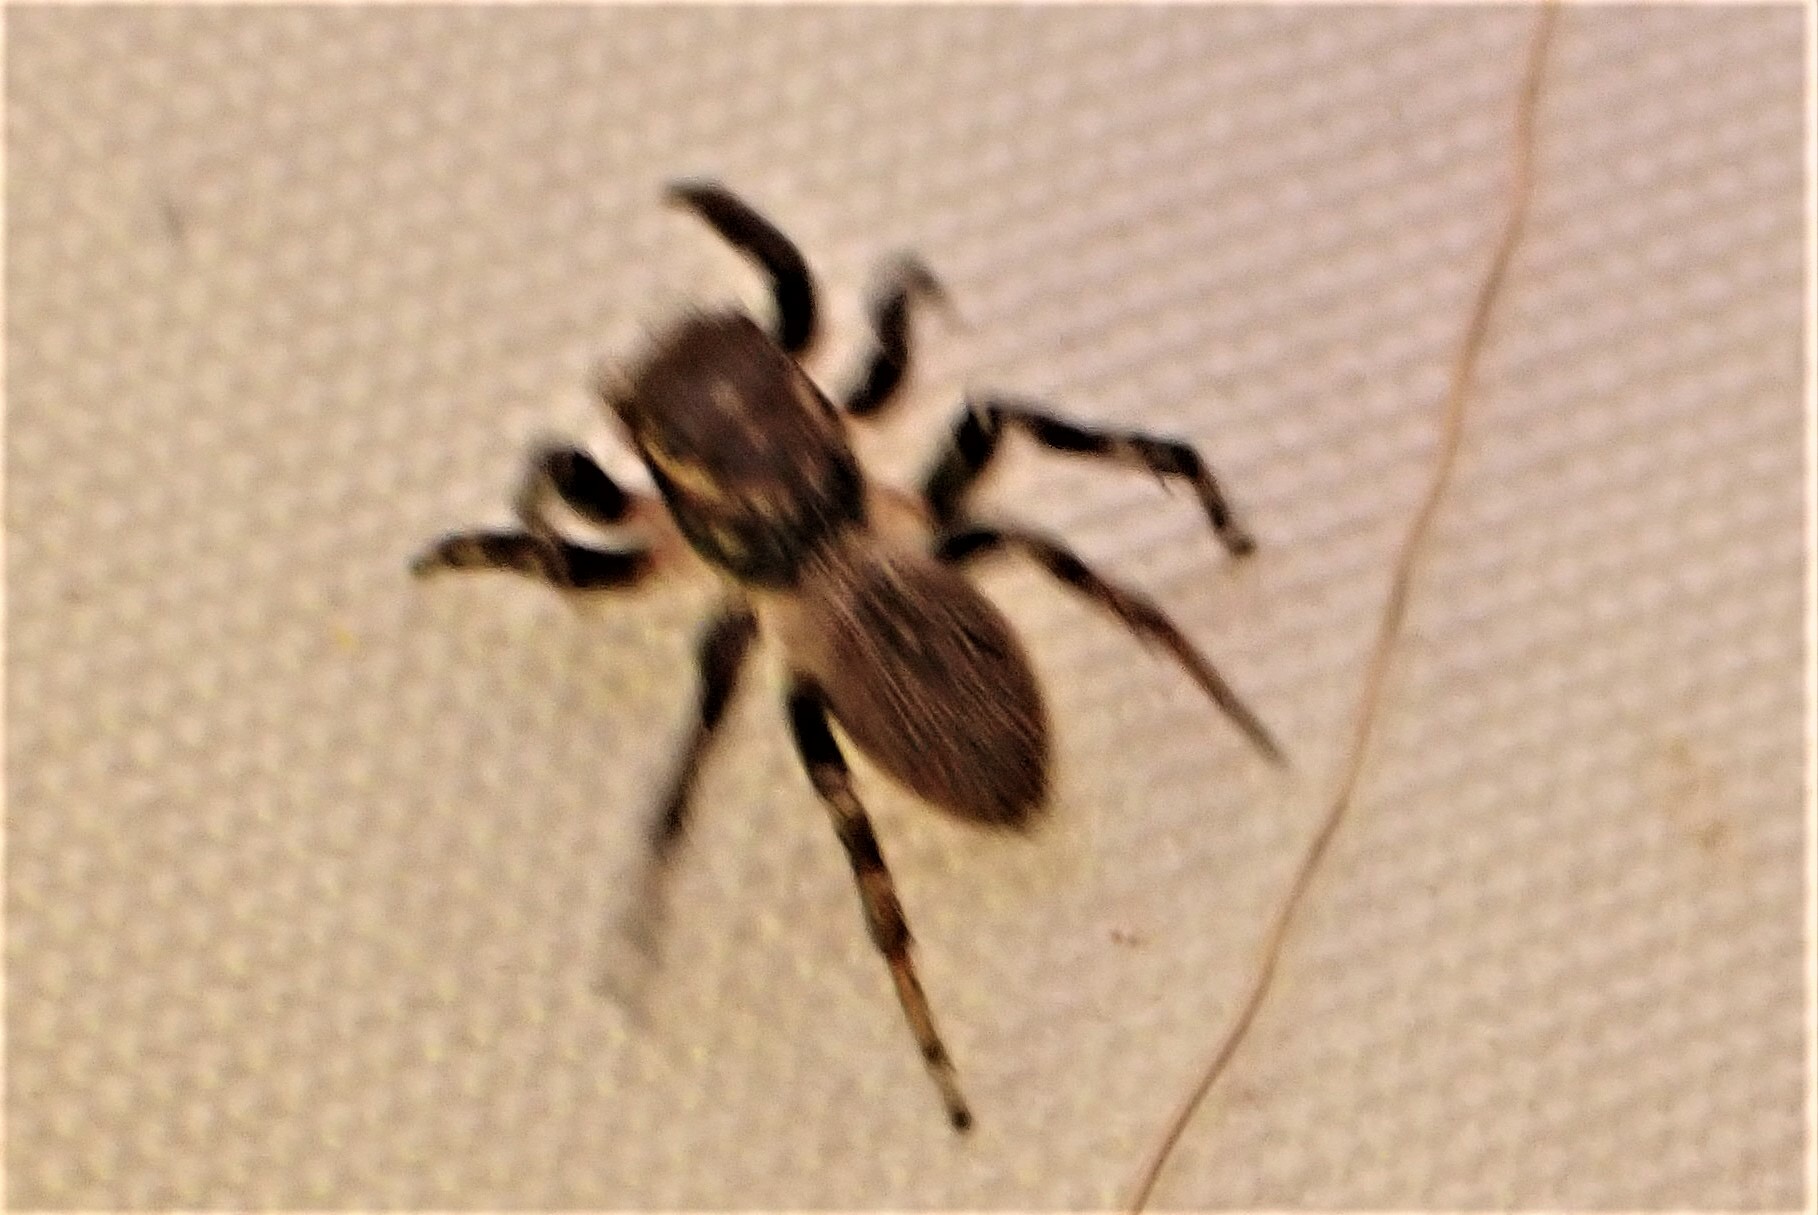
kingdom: Animalia
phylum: Arthropoda
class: Arachnida
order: Araneae
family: Salticidae
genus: Maratus
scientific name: Maratus griseus
